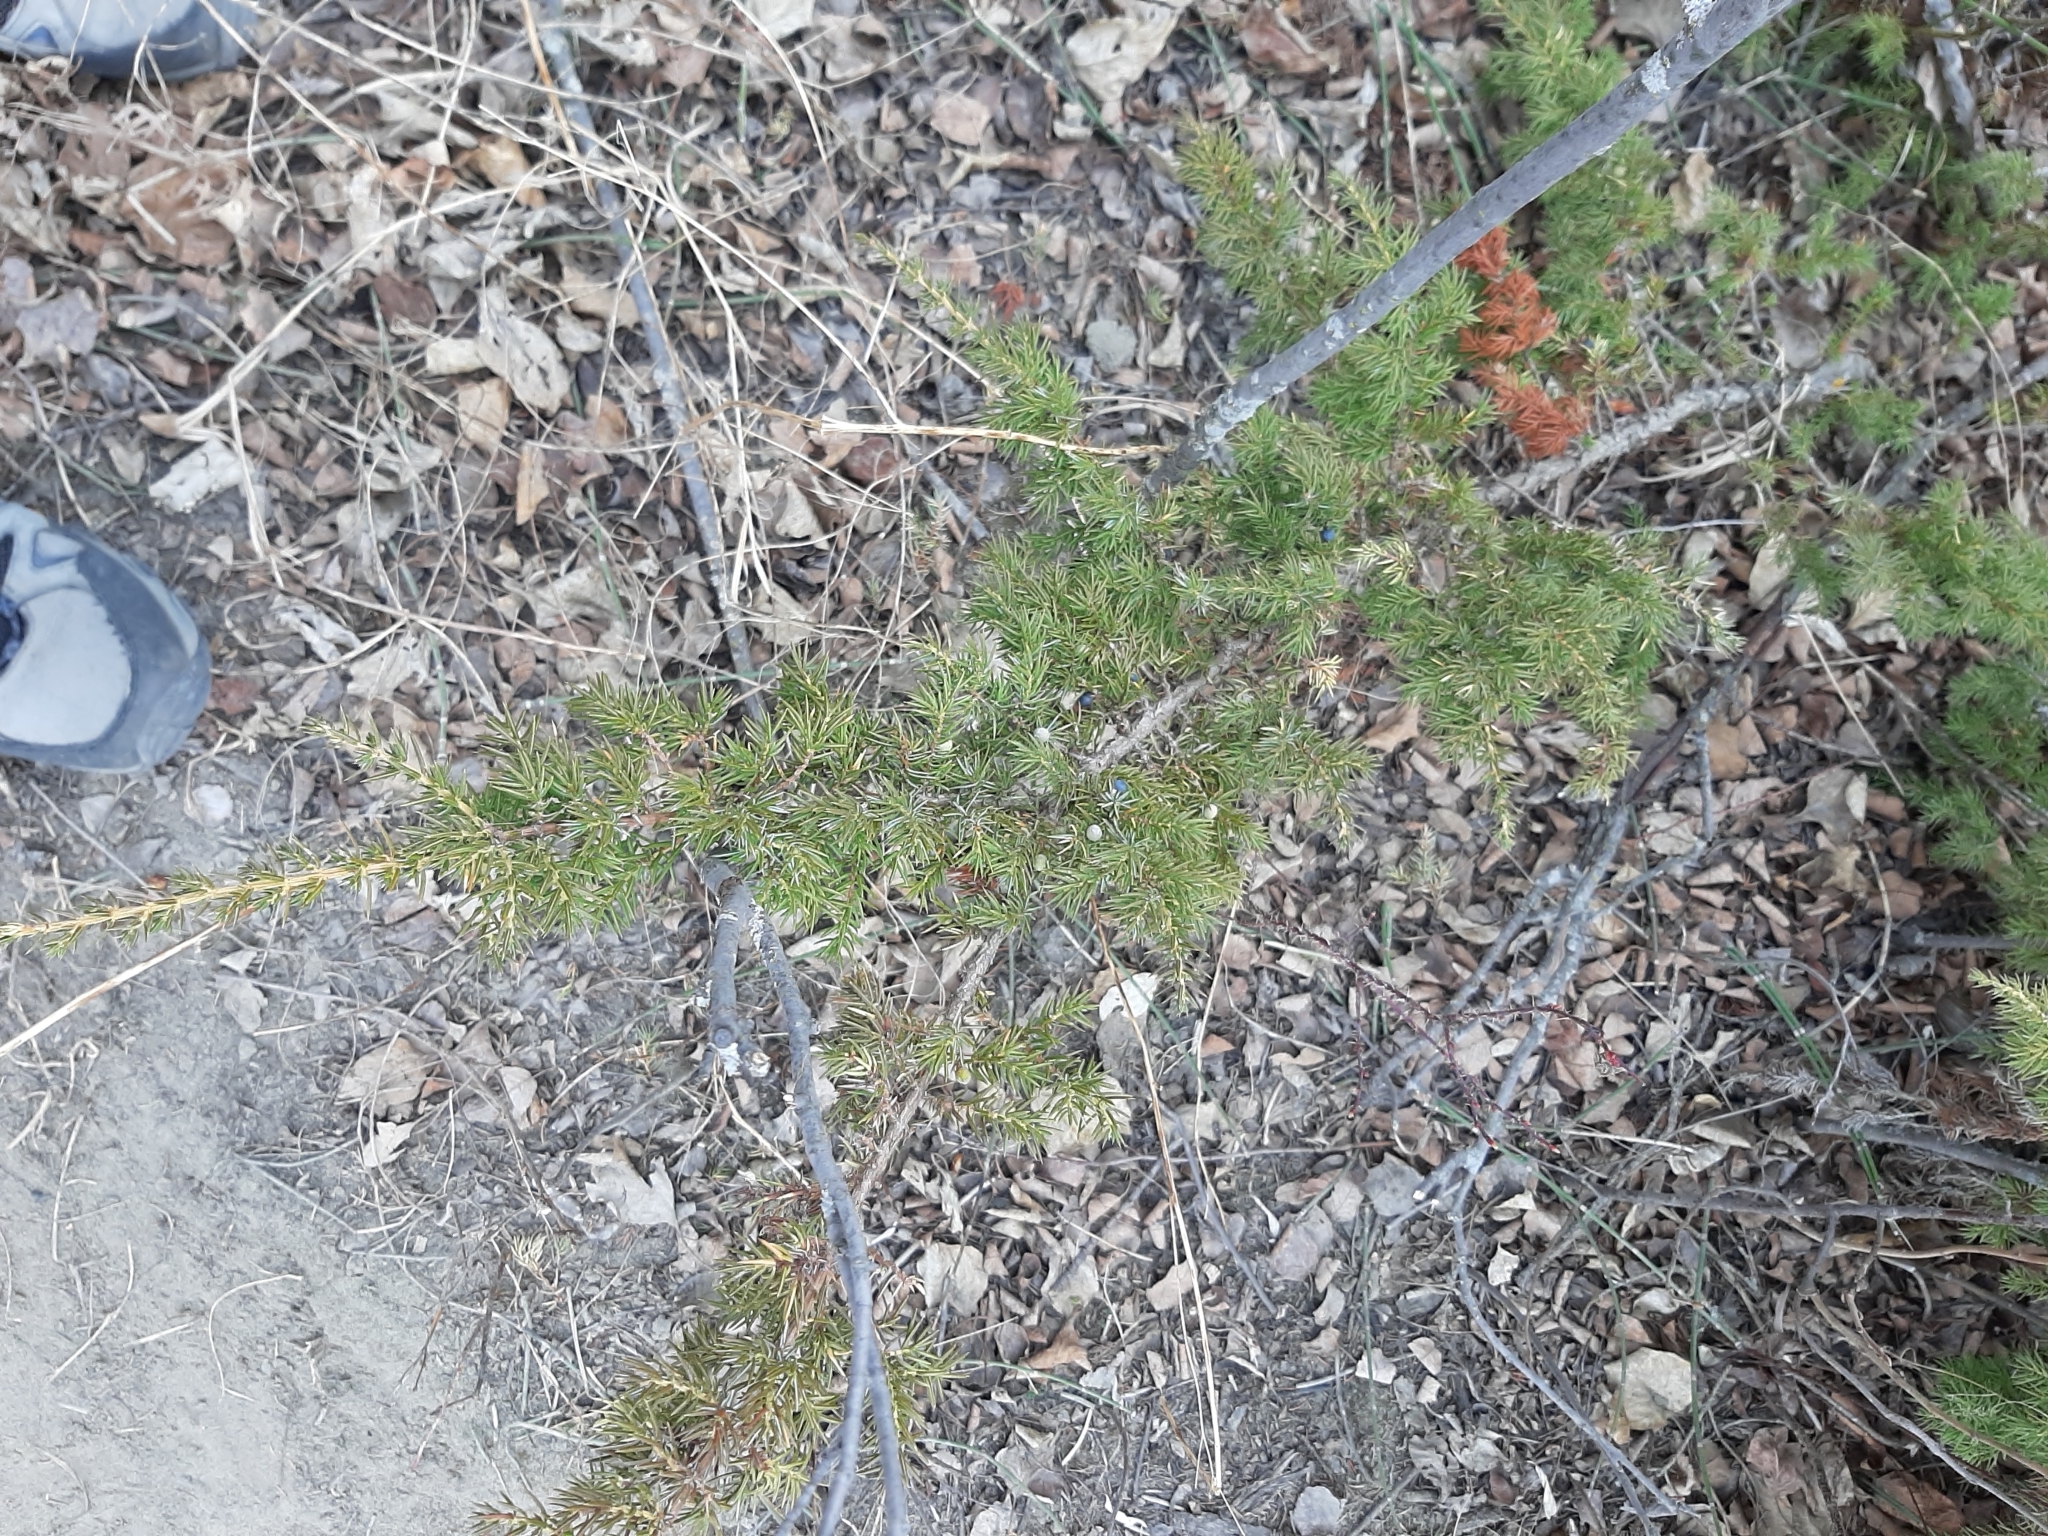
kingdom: Plantae
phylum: Tracheophyta
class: Pinopsida
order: Pinales
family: Cupressaceae
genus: Juniperus
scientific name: Juniperus communis
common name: Common juniper
